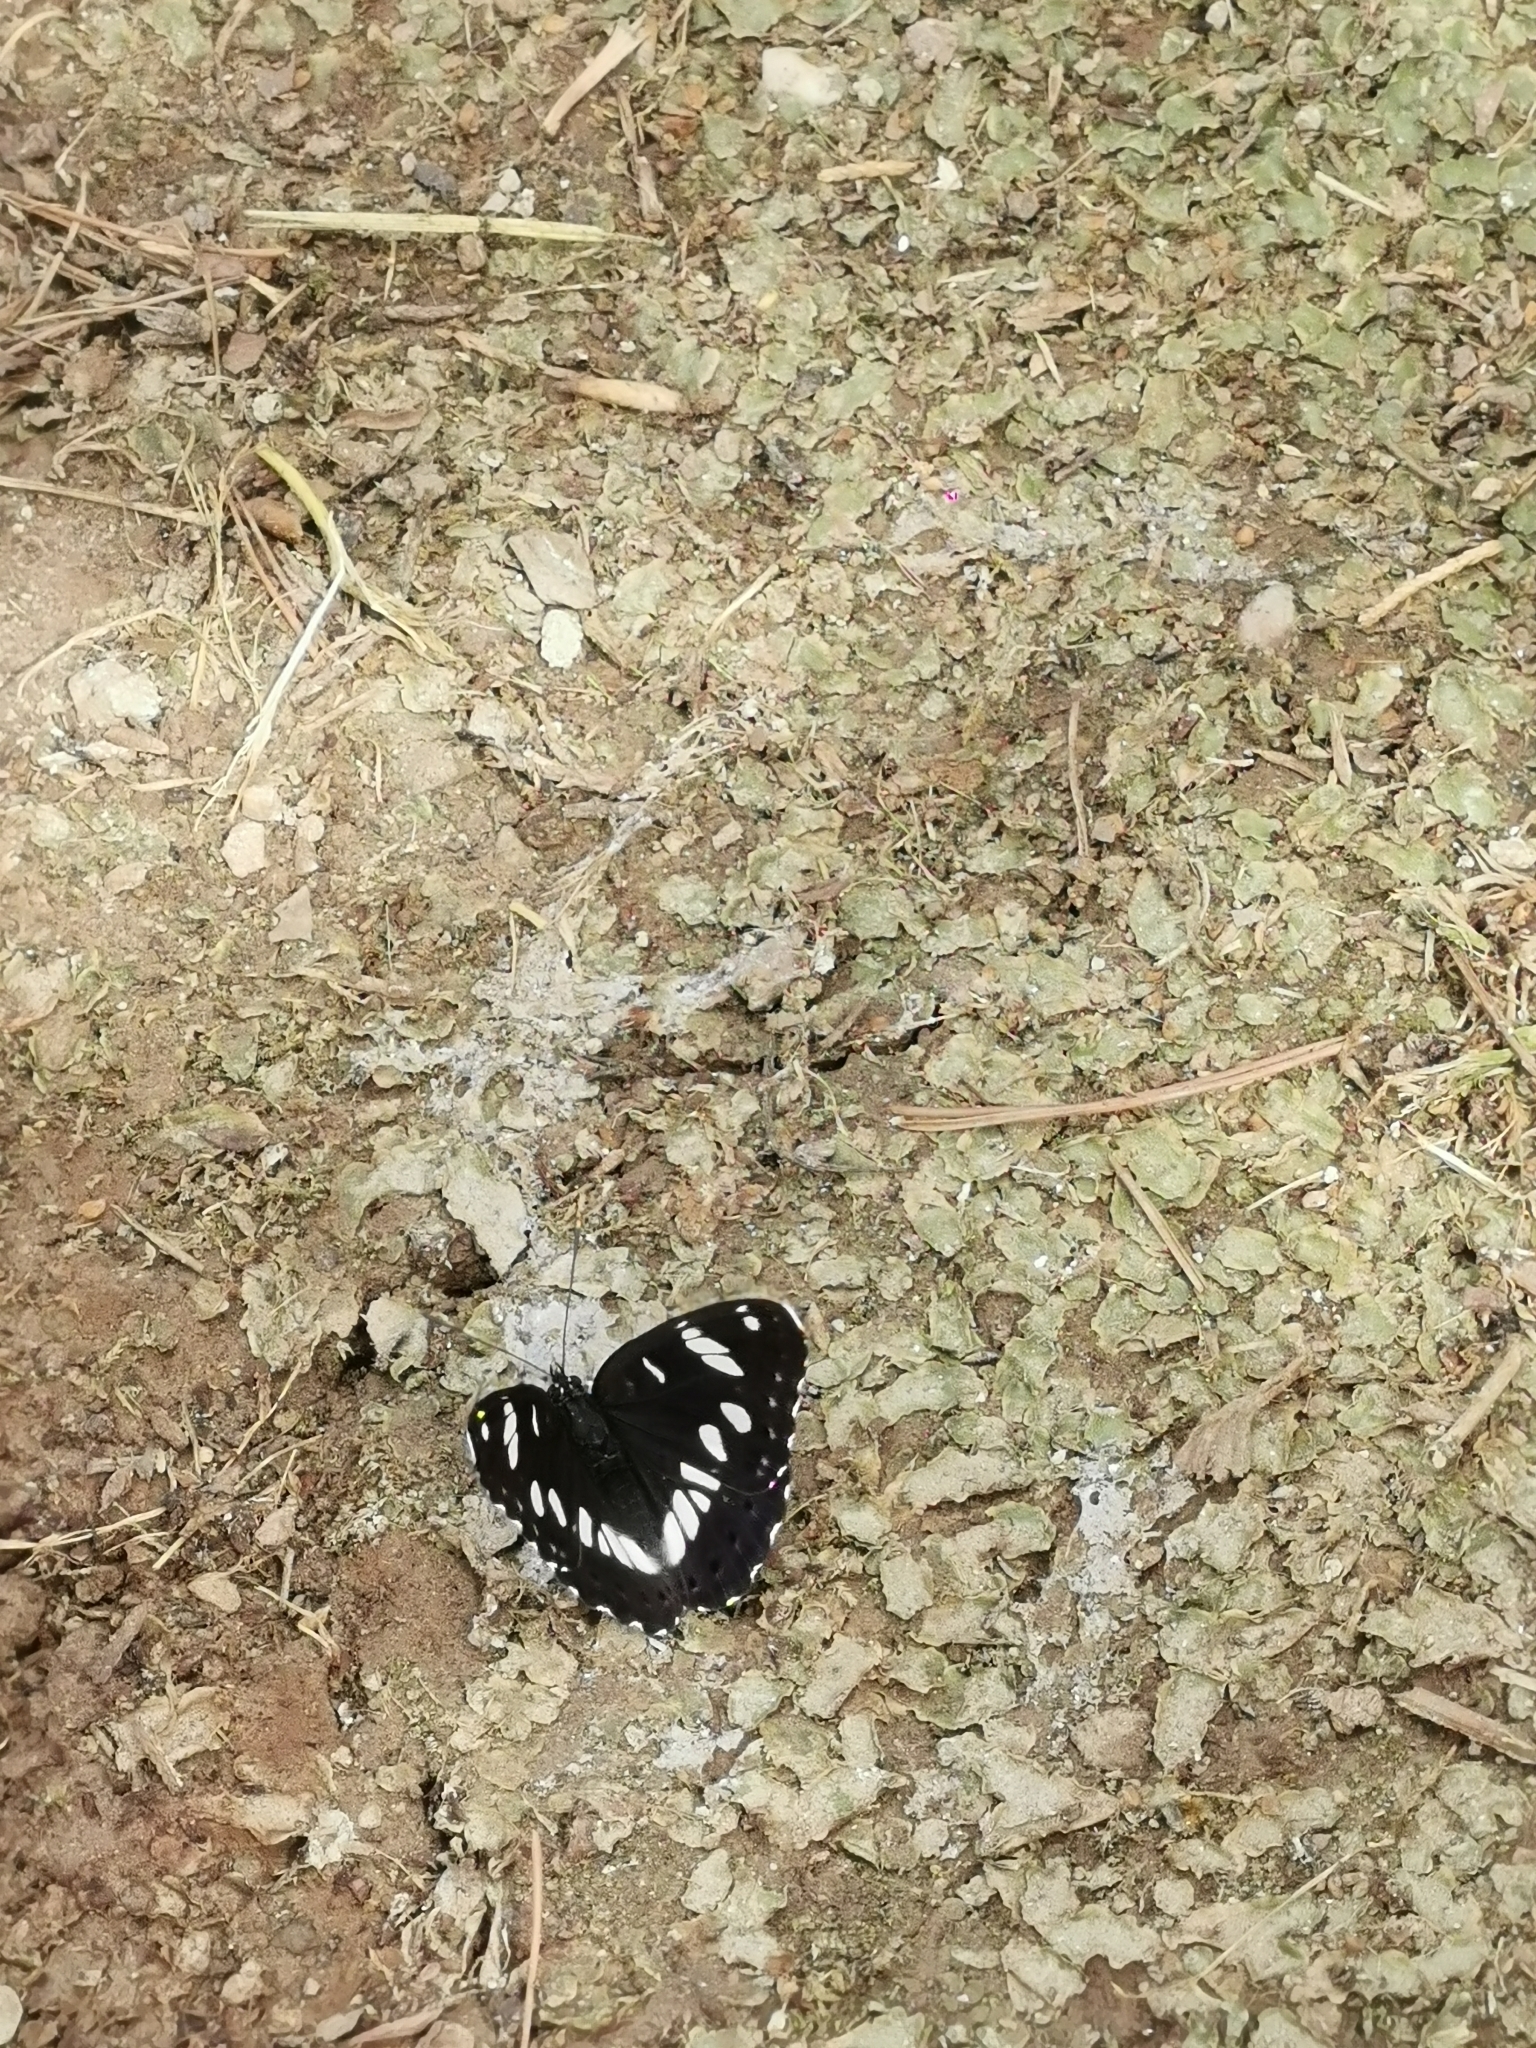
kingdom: Animalia
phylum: Arthropoda
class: Insecta
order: Lepidoptera
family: Nymphalidae
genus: Limenitis
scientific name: Limenitis reducta
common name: Southern white admiral
